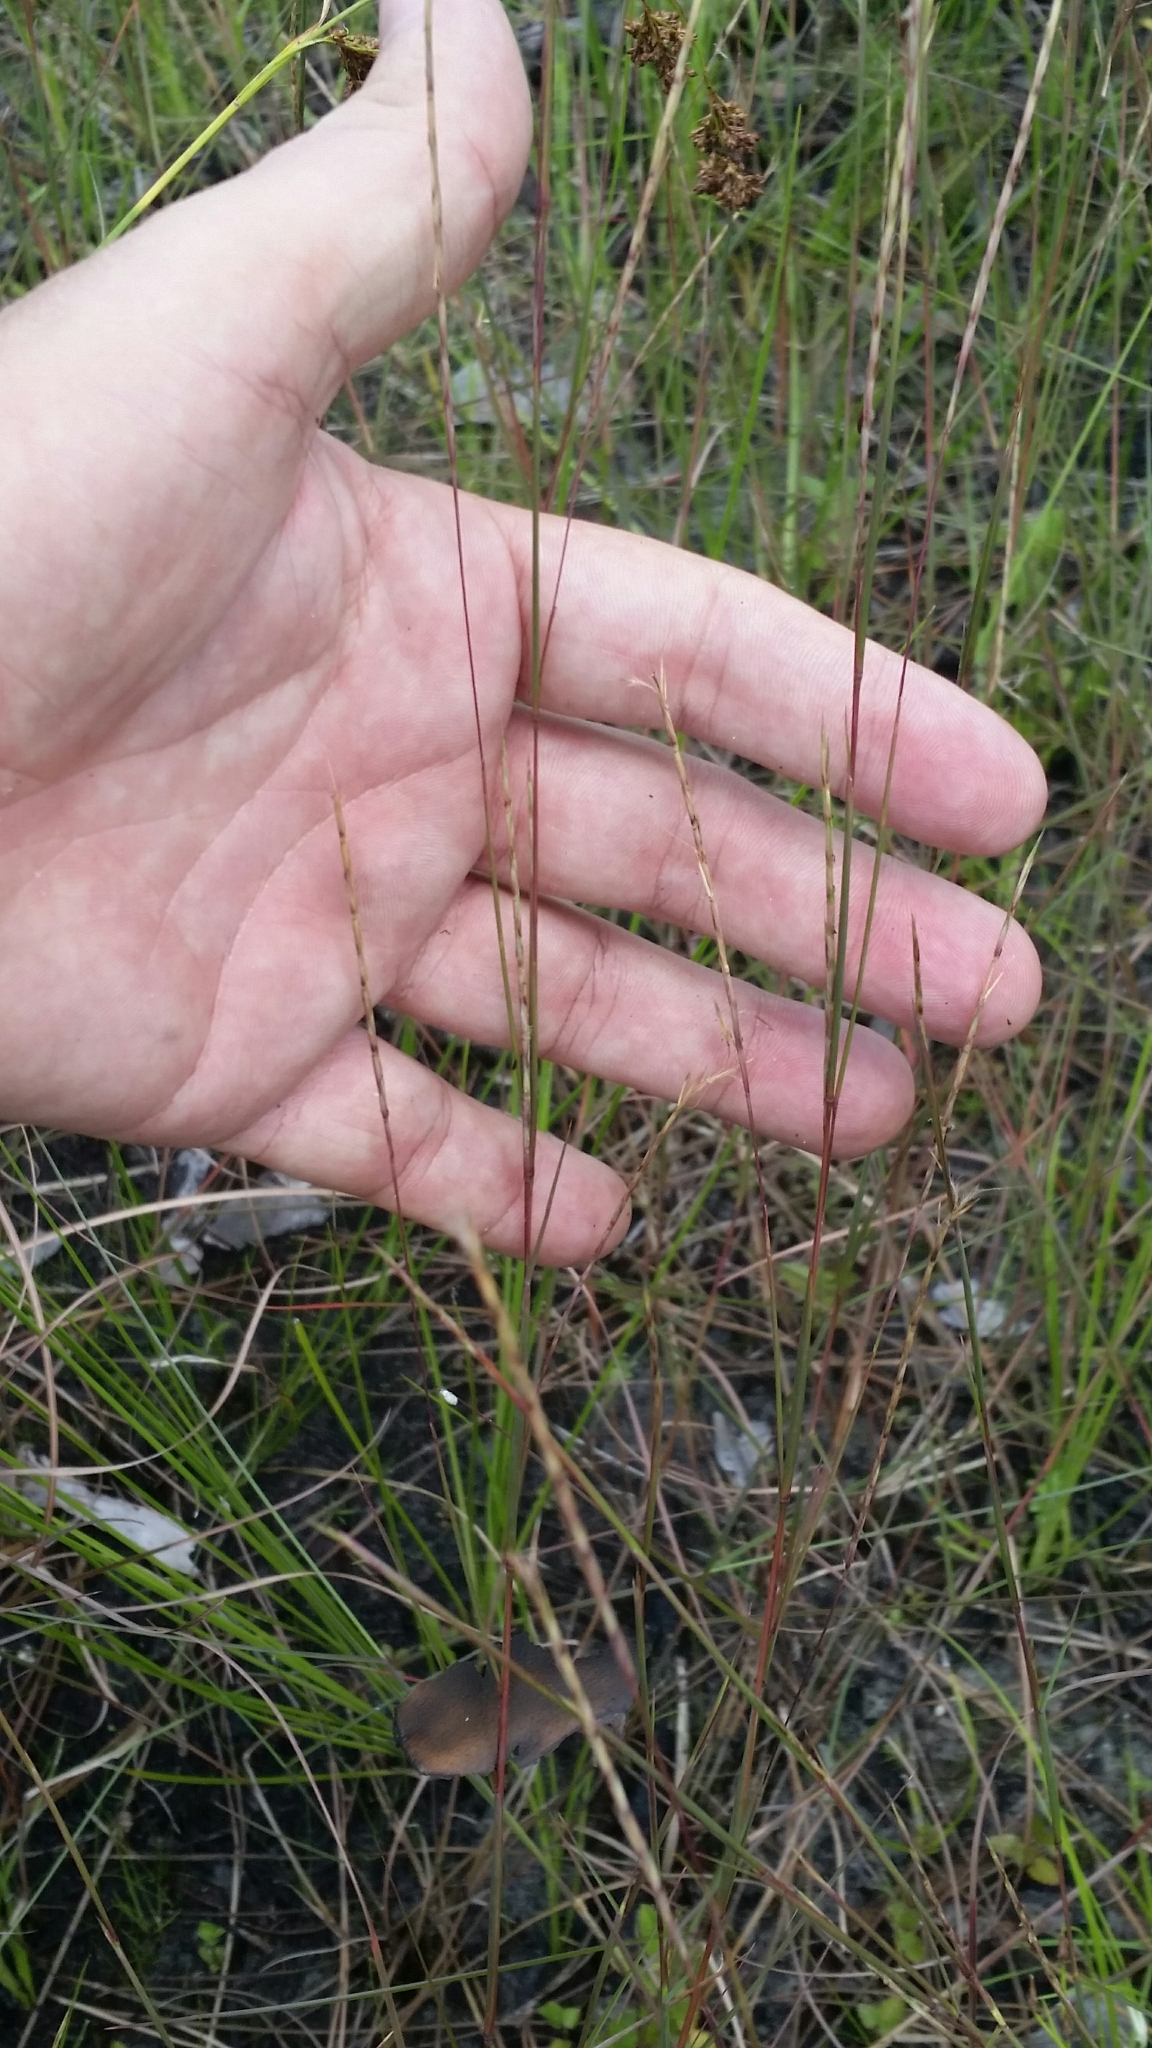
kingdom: Plantae
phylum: Tracheophyta
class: Liliopsida
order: Poales
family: Poaceae
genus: Schizachyrium
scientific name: Schizachyrium rhizomatum
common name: Florida little bluestem
